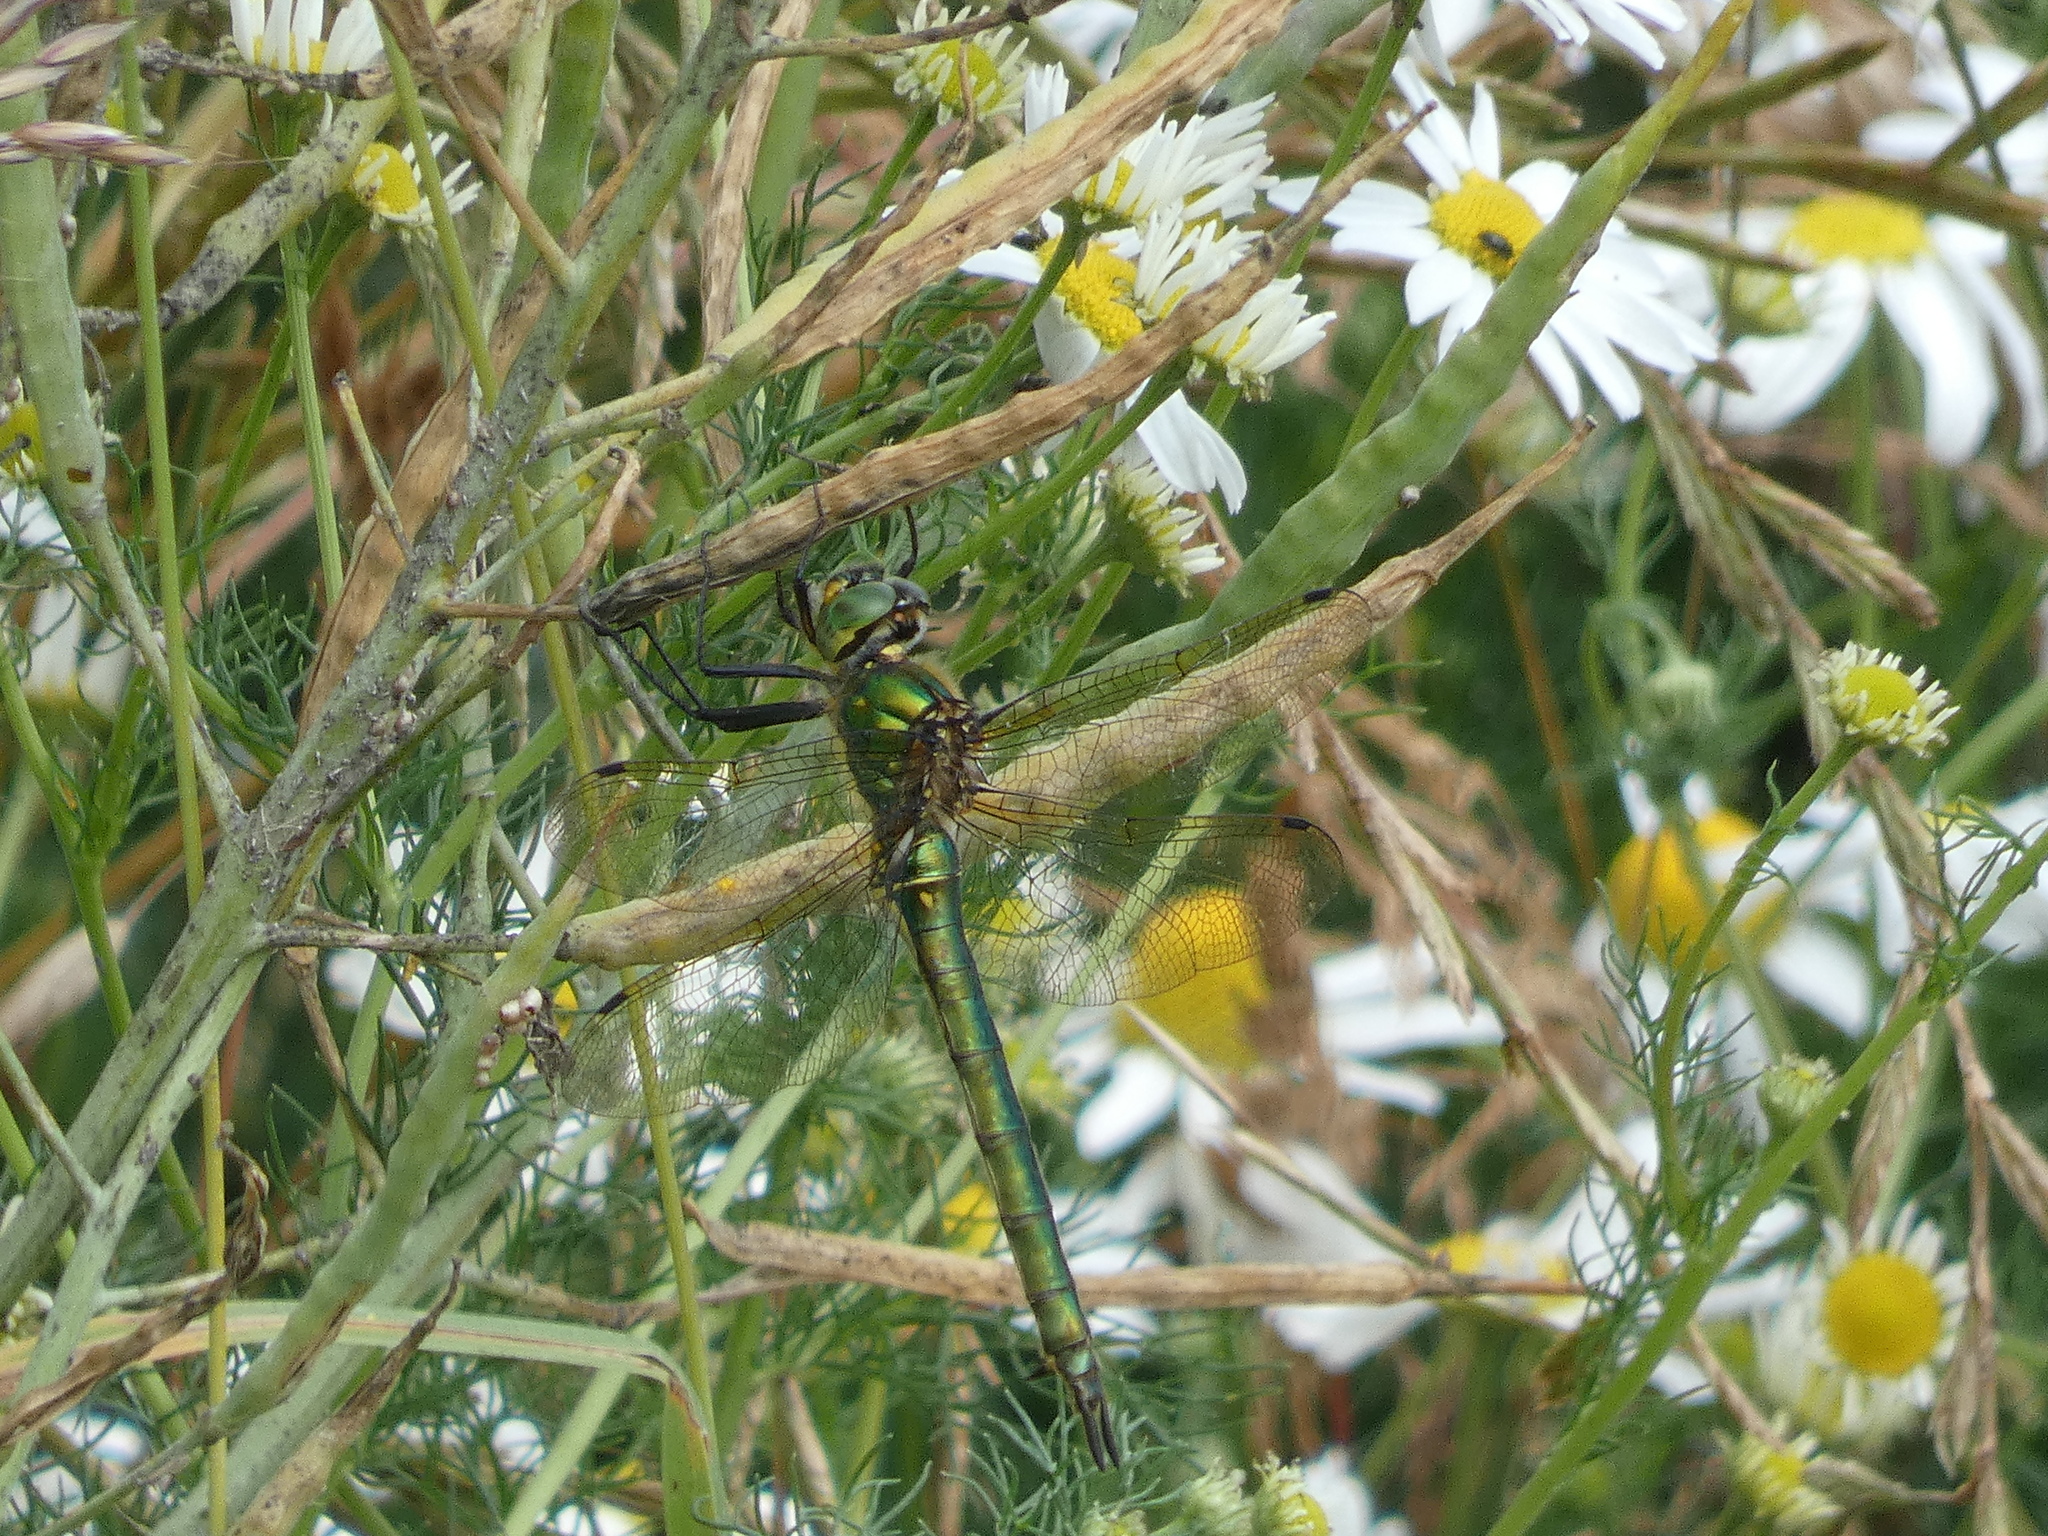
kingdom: Animalia
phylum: Arthropoda
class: Insecta
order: Odonata
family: Corduliidae
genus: Somatochlora
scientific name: Somatochlora metallica
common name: Brilliant emerald
